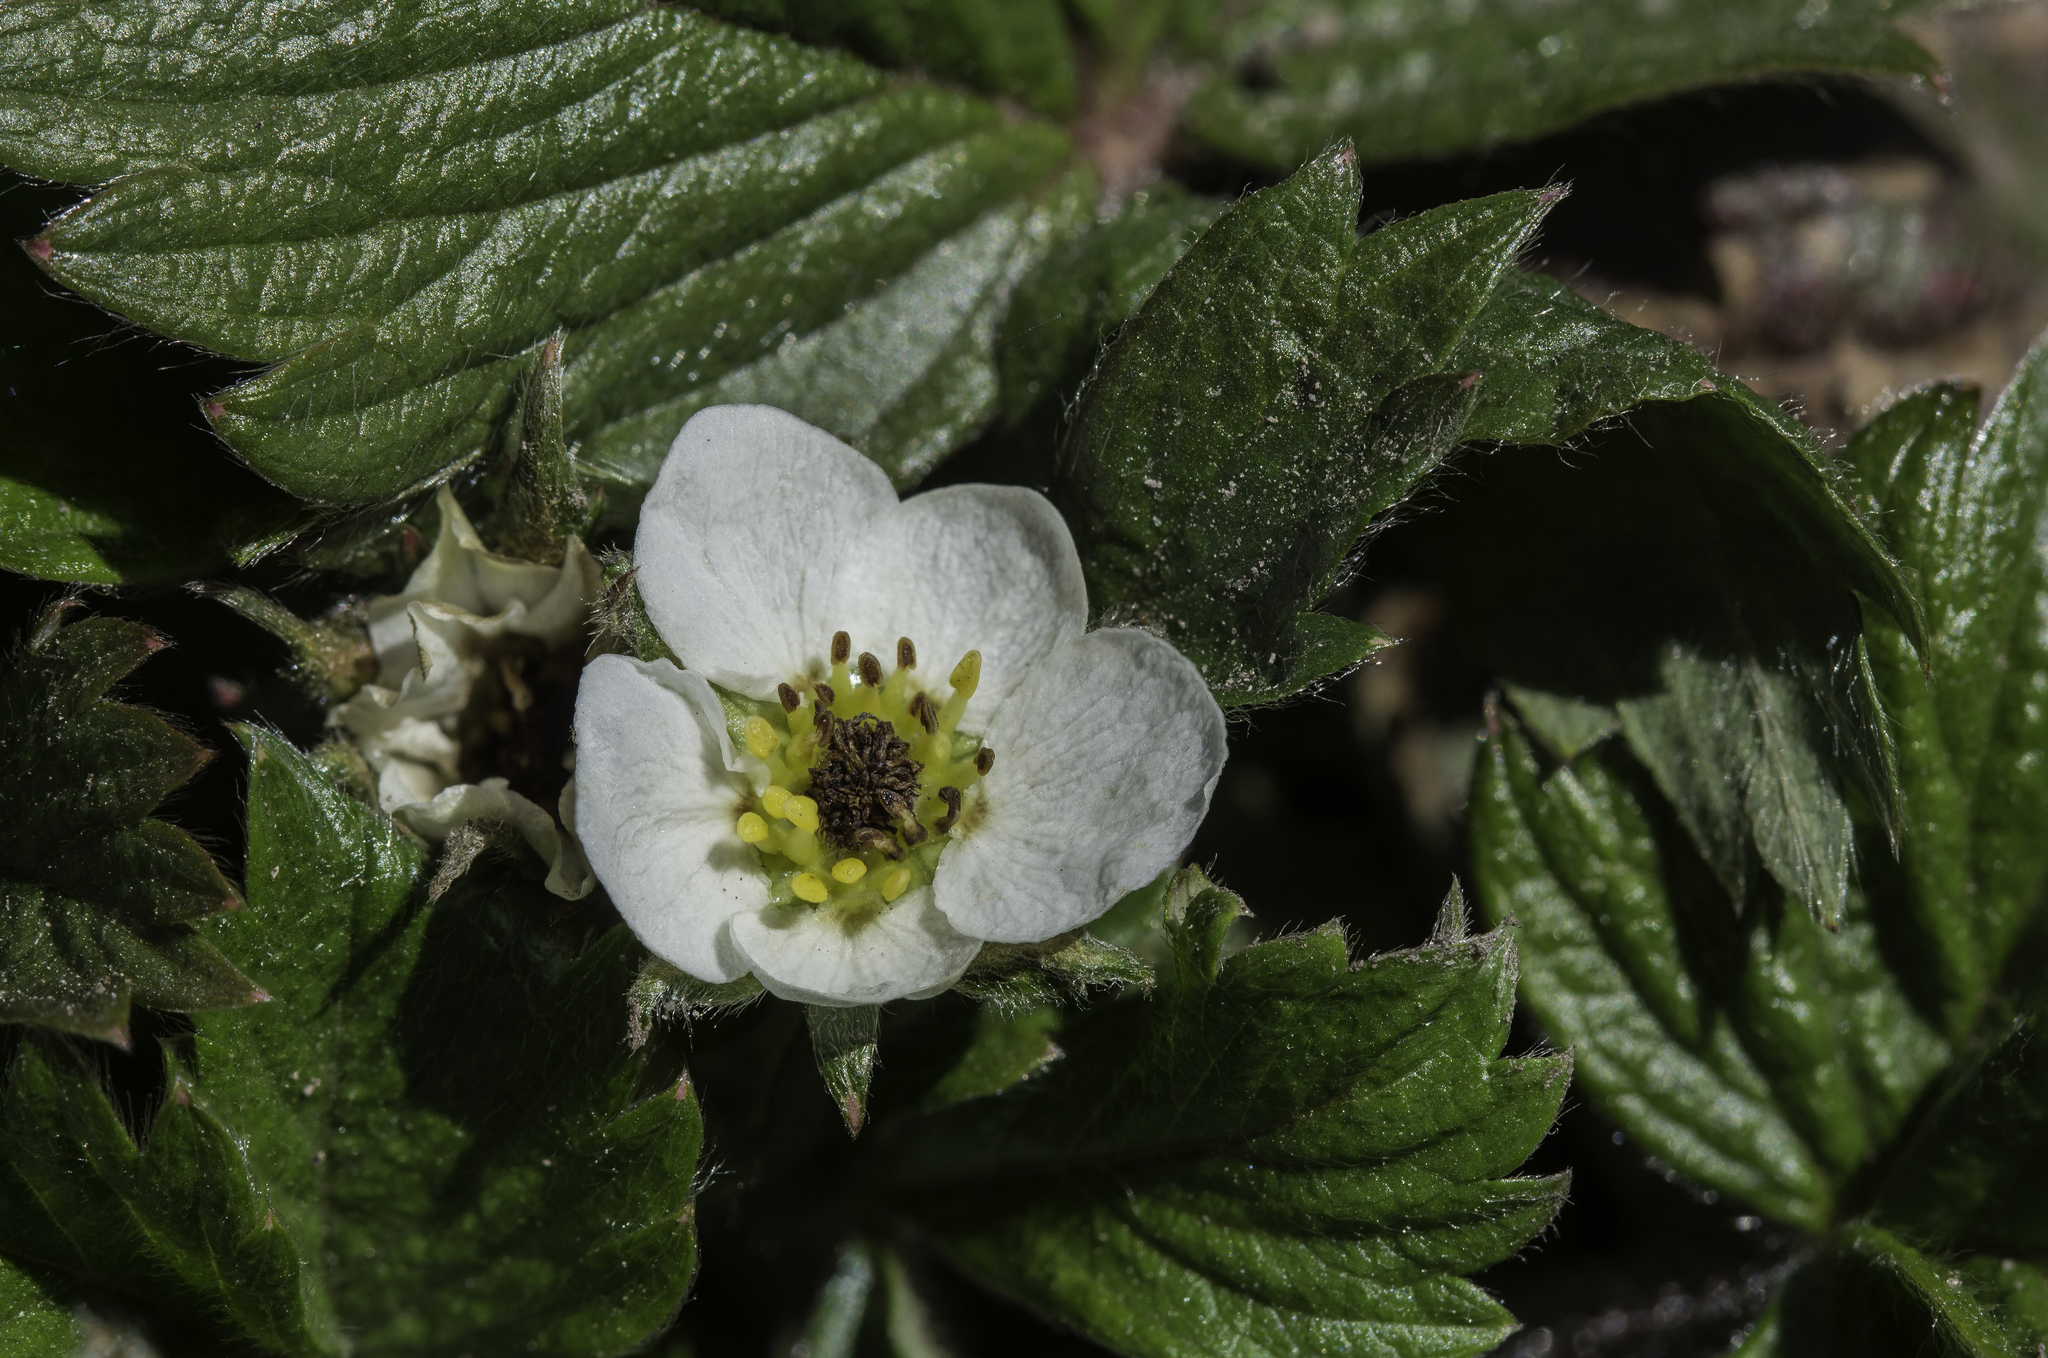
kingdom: Plantae
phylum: Tracheophyta
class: Magnoliopsida
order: Rosales
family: Rosaceae
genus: Fragaria
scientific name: Fragaria vesca
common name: Wild strawberry
